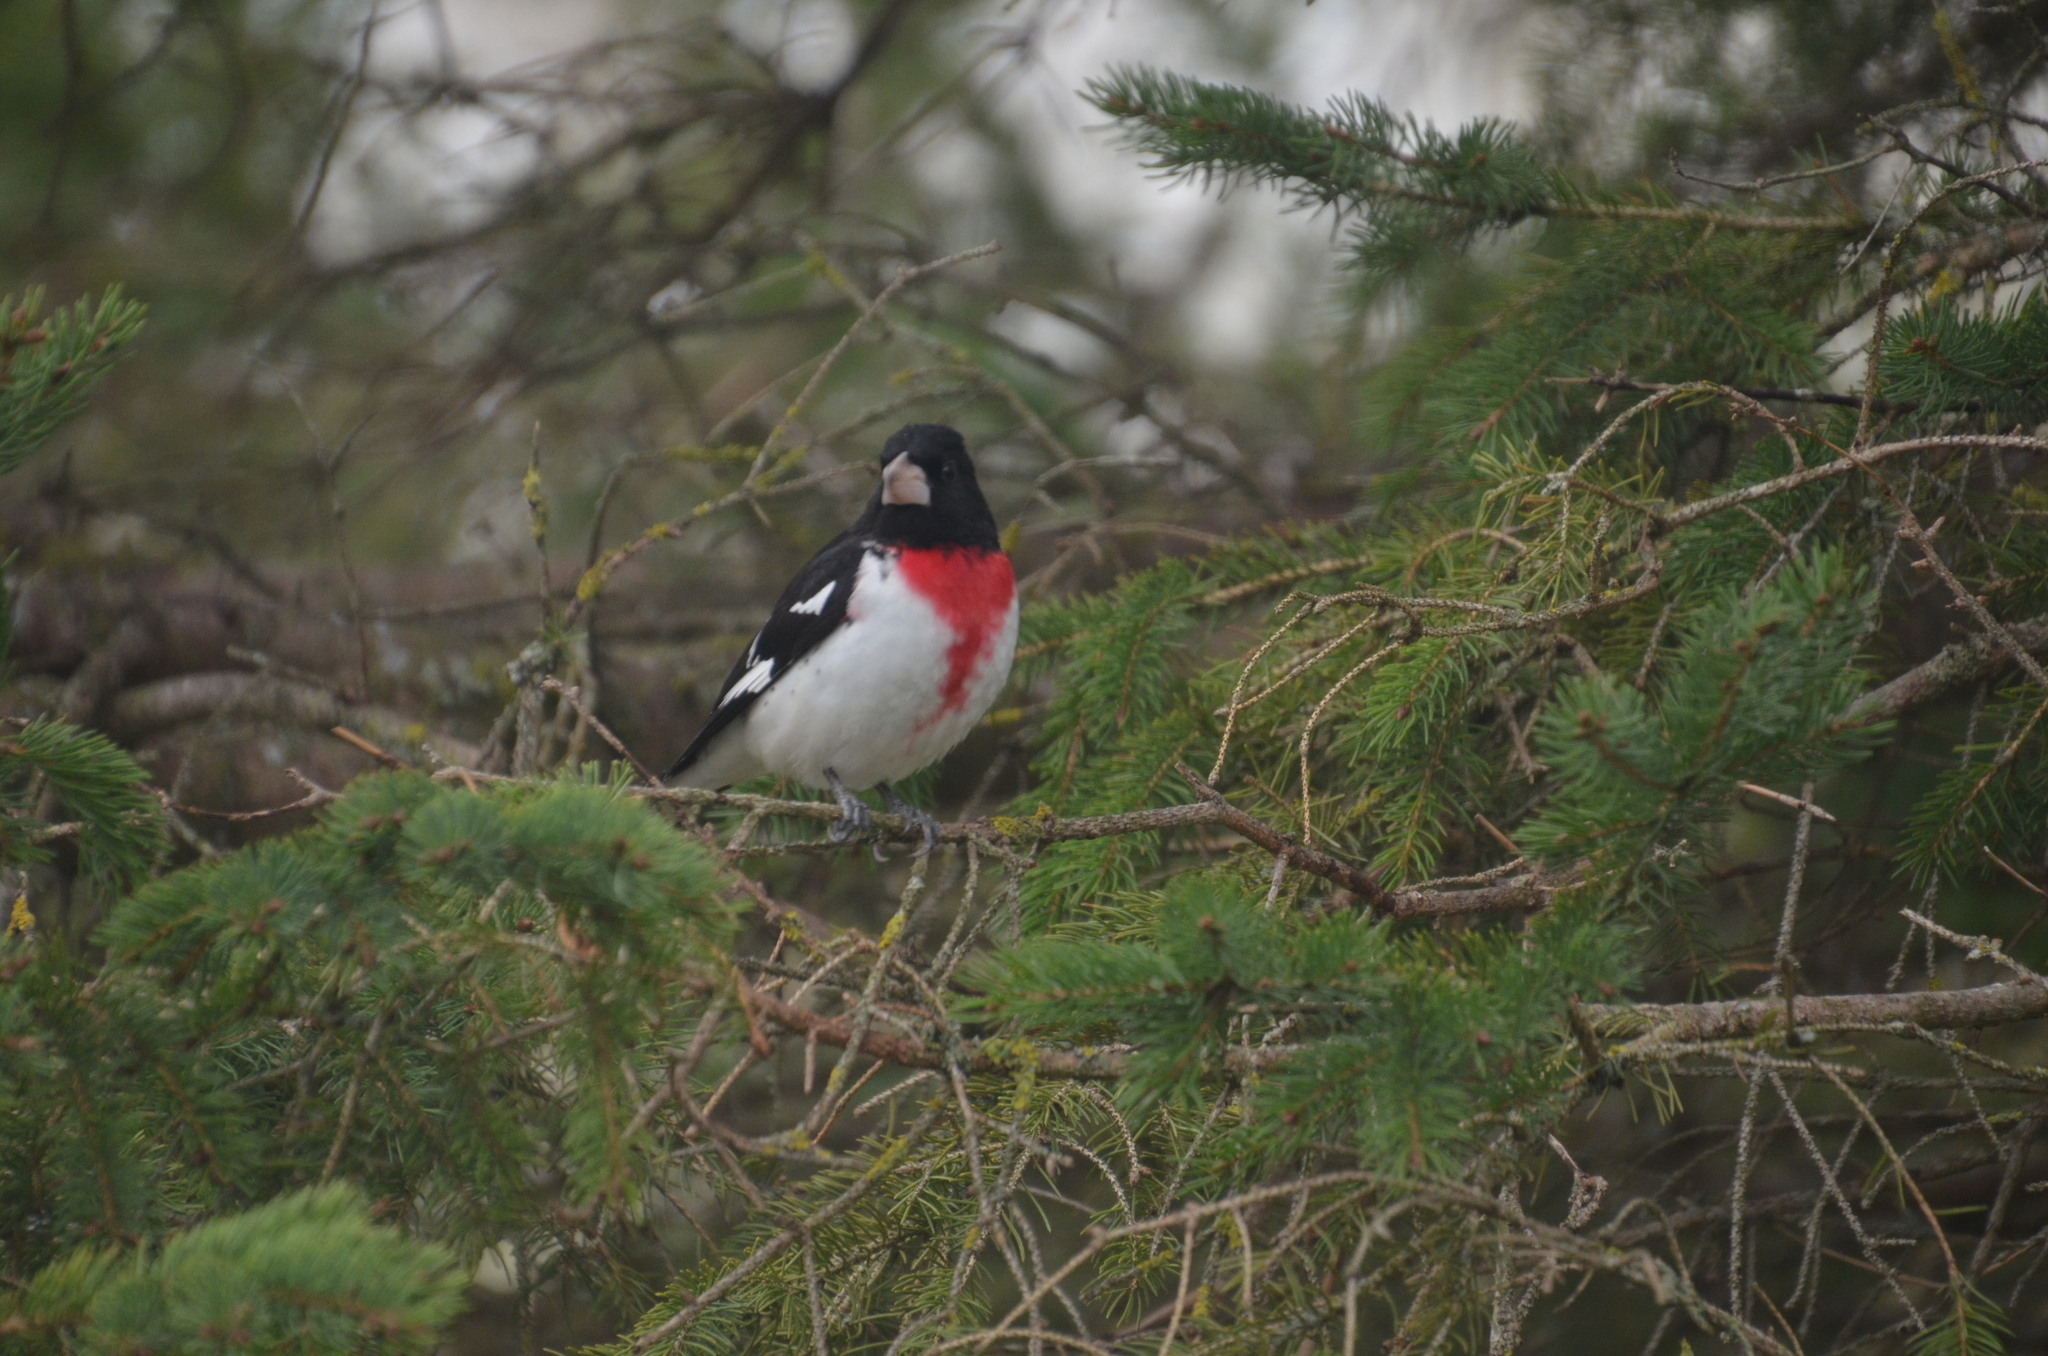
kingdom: Animalia
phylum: Chordata
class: Aves
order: Passeriformes
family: Cardinalidae
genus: Pheucticus
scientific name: Pheucticus ludovicianus
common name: Rose-breasted grosbeak
